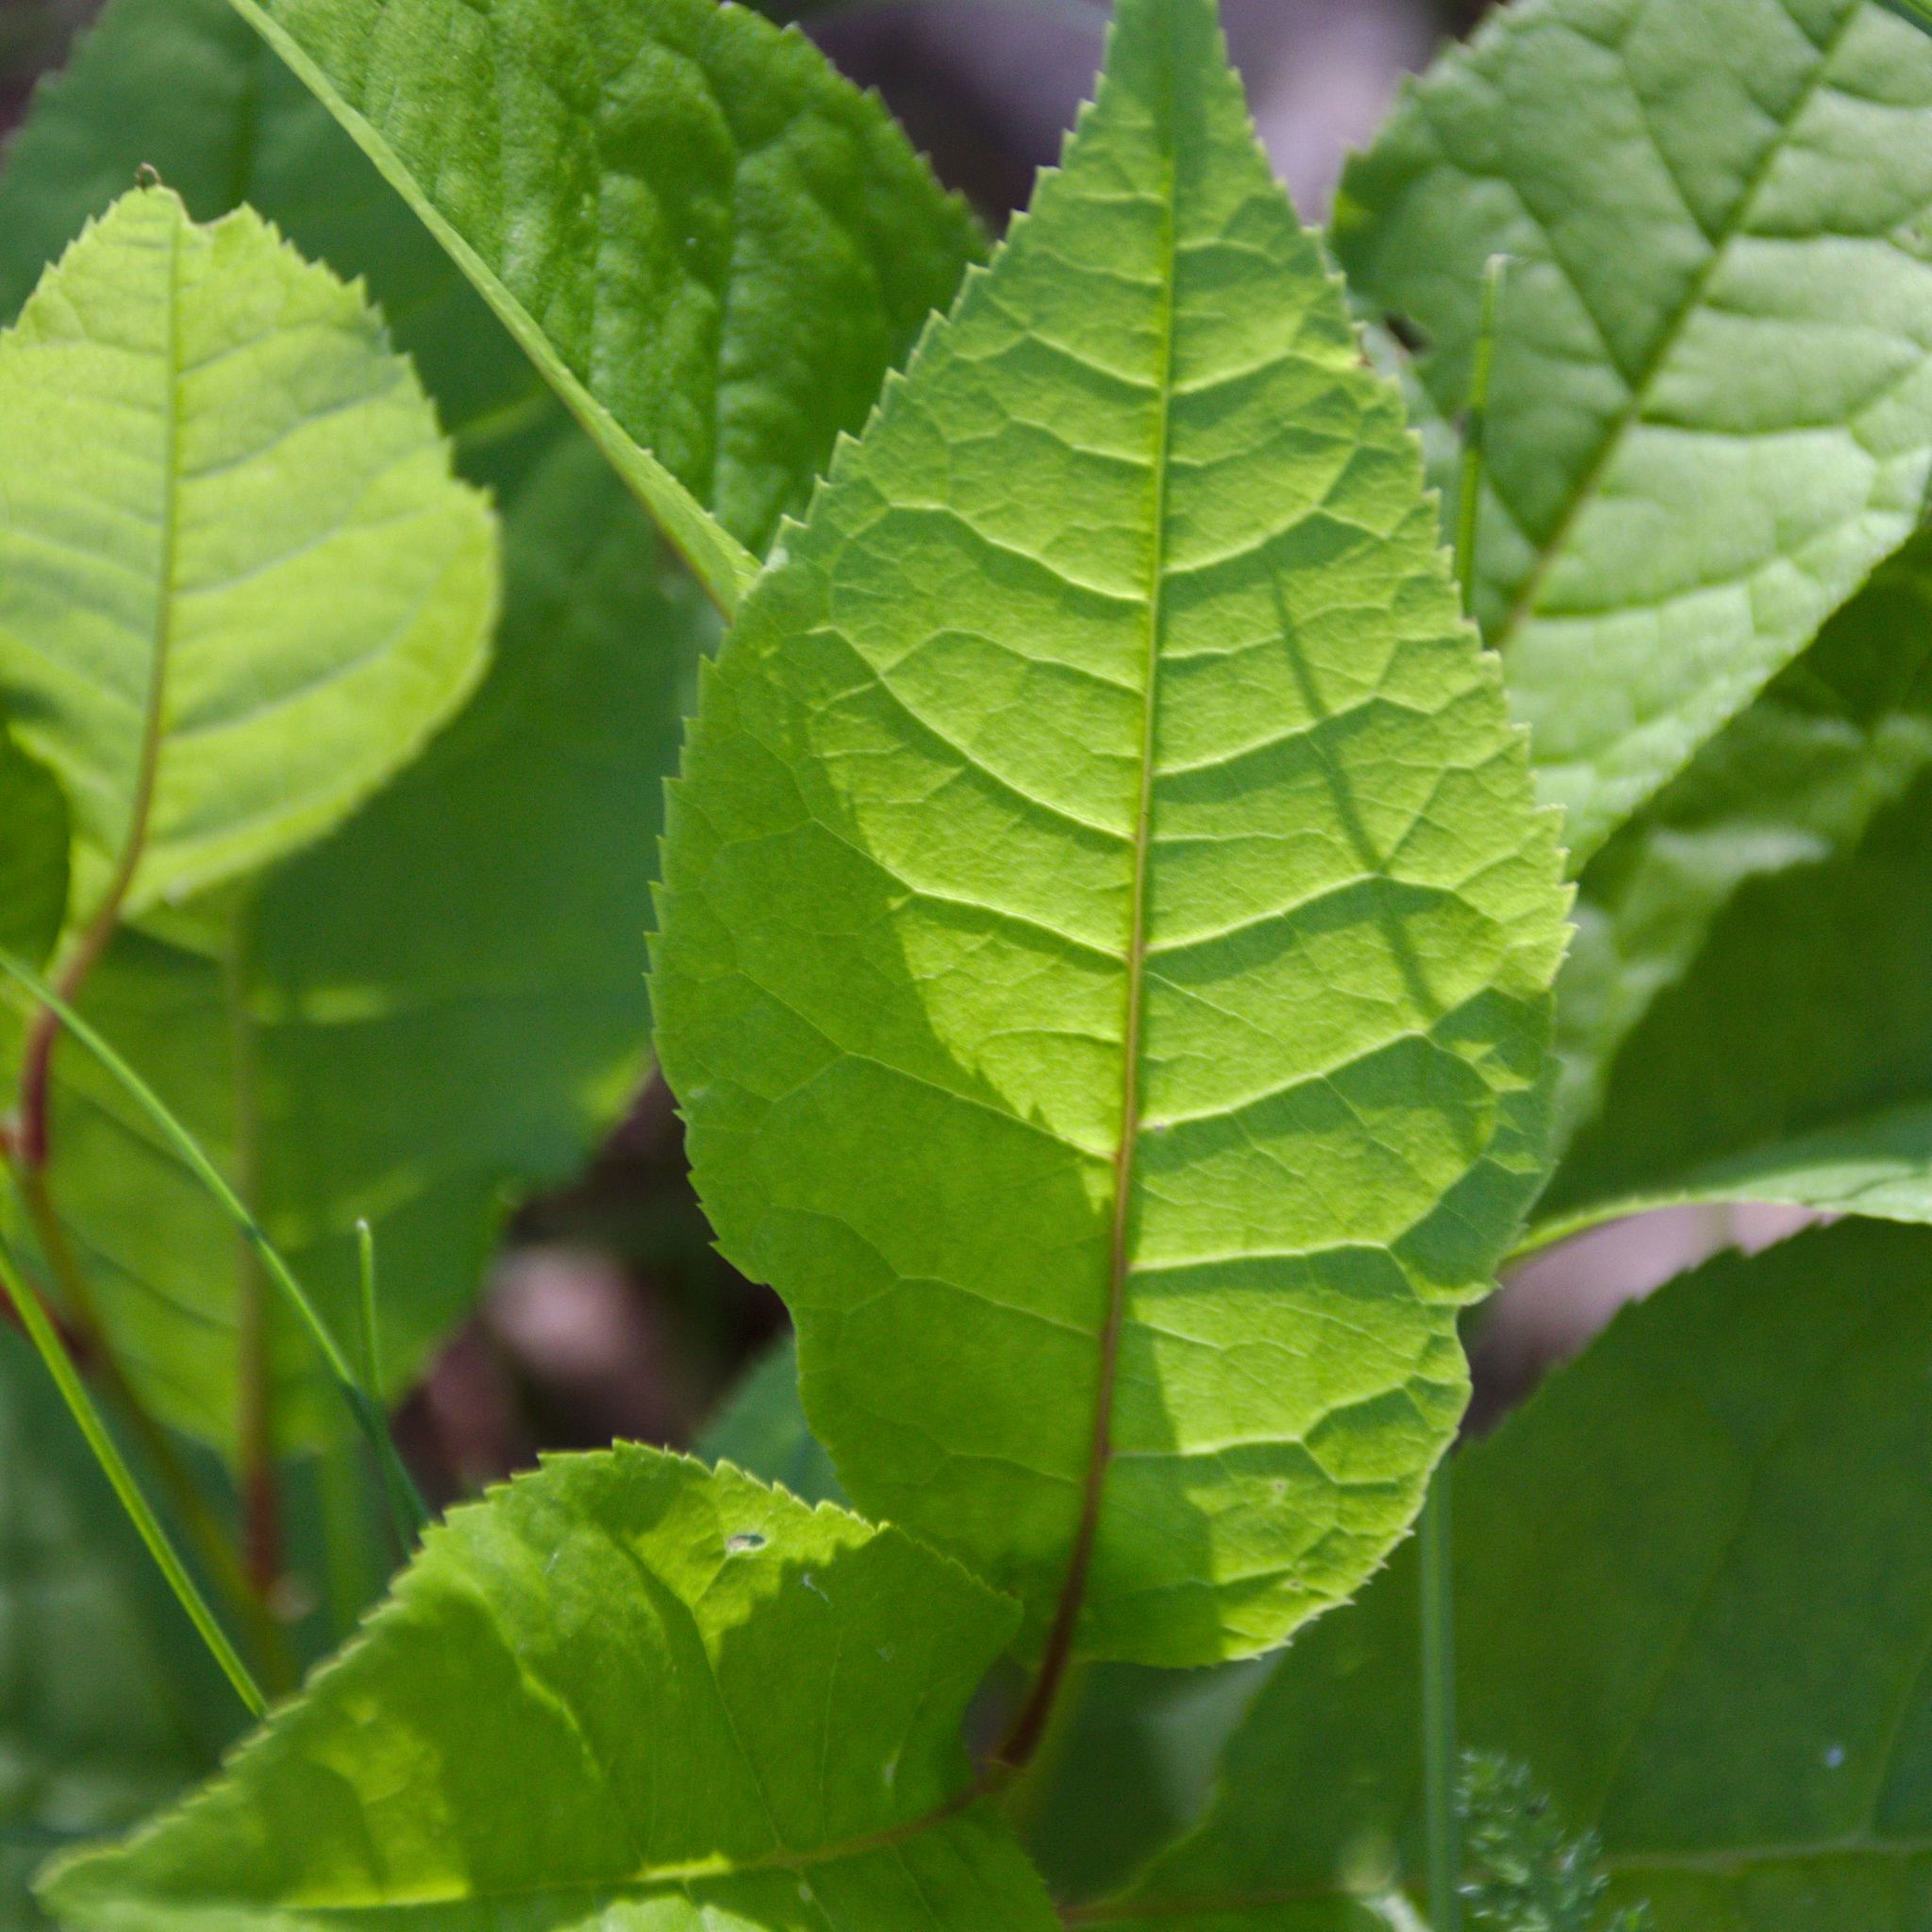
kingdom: Plantae
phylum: Tracheophyta
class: Magnoliopsida
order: Rosales
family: Rosaceae
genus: Prunus
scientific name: Prunus padus
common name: Bird cherry
